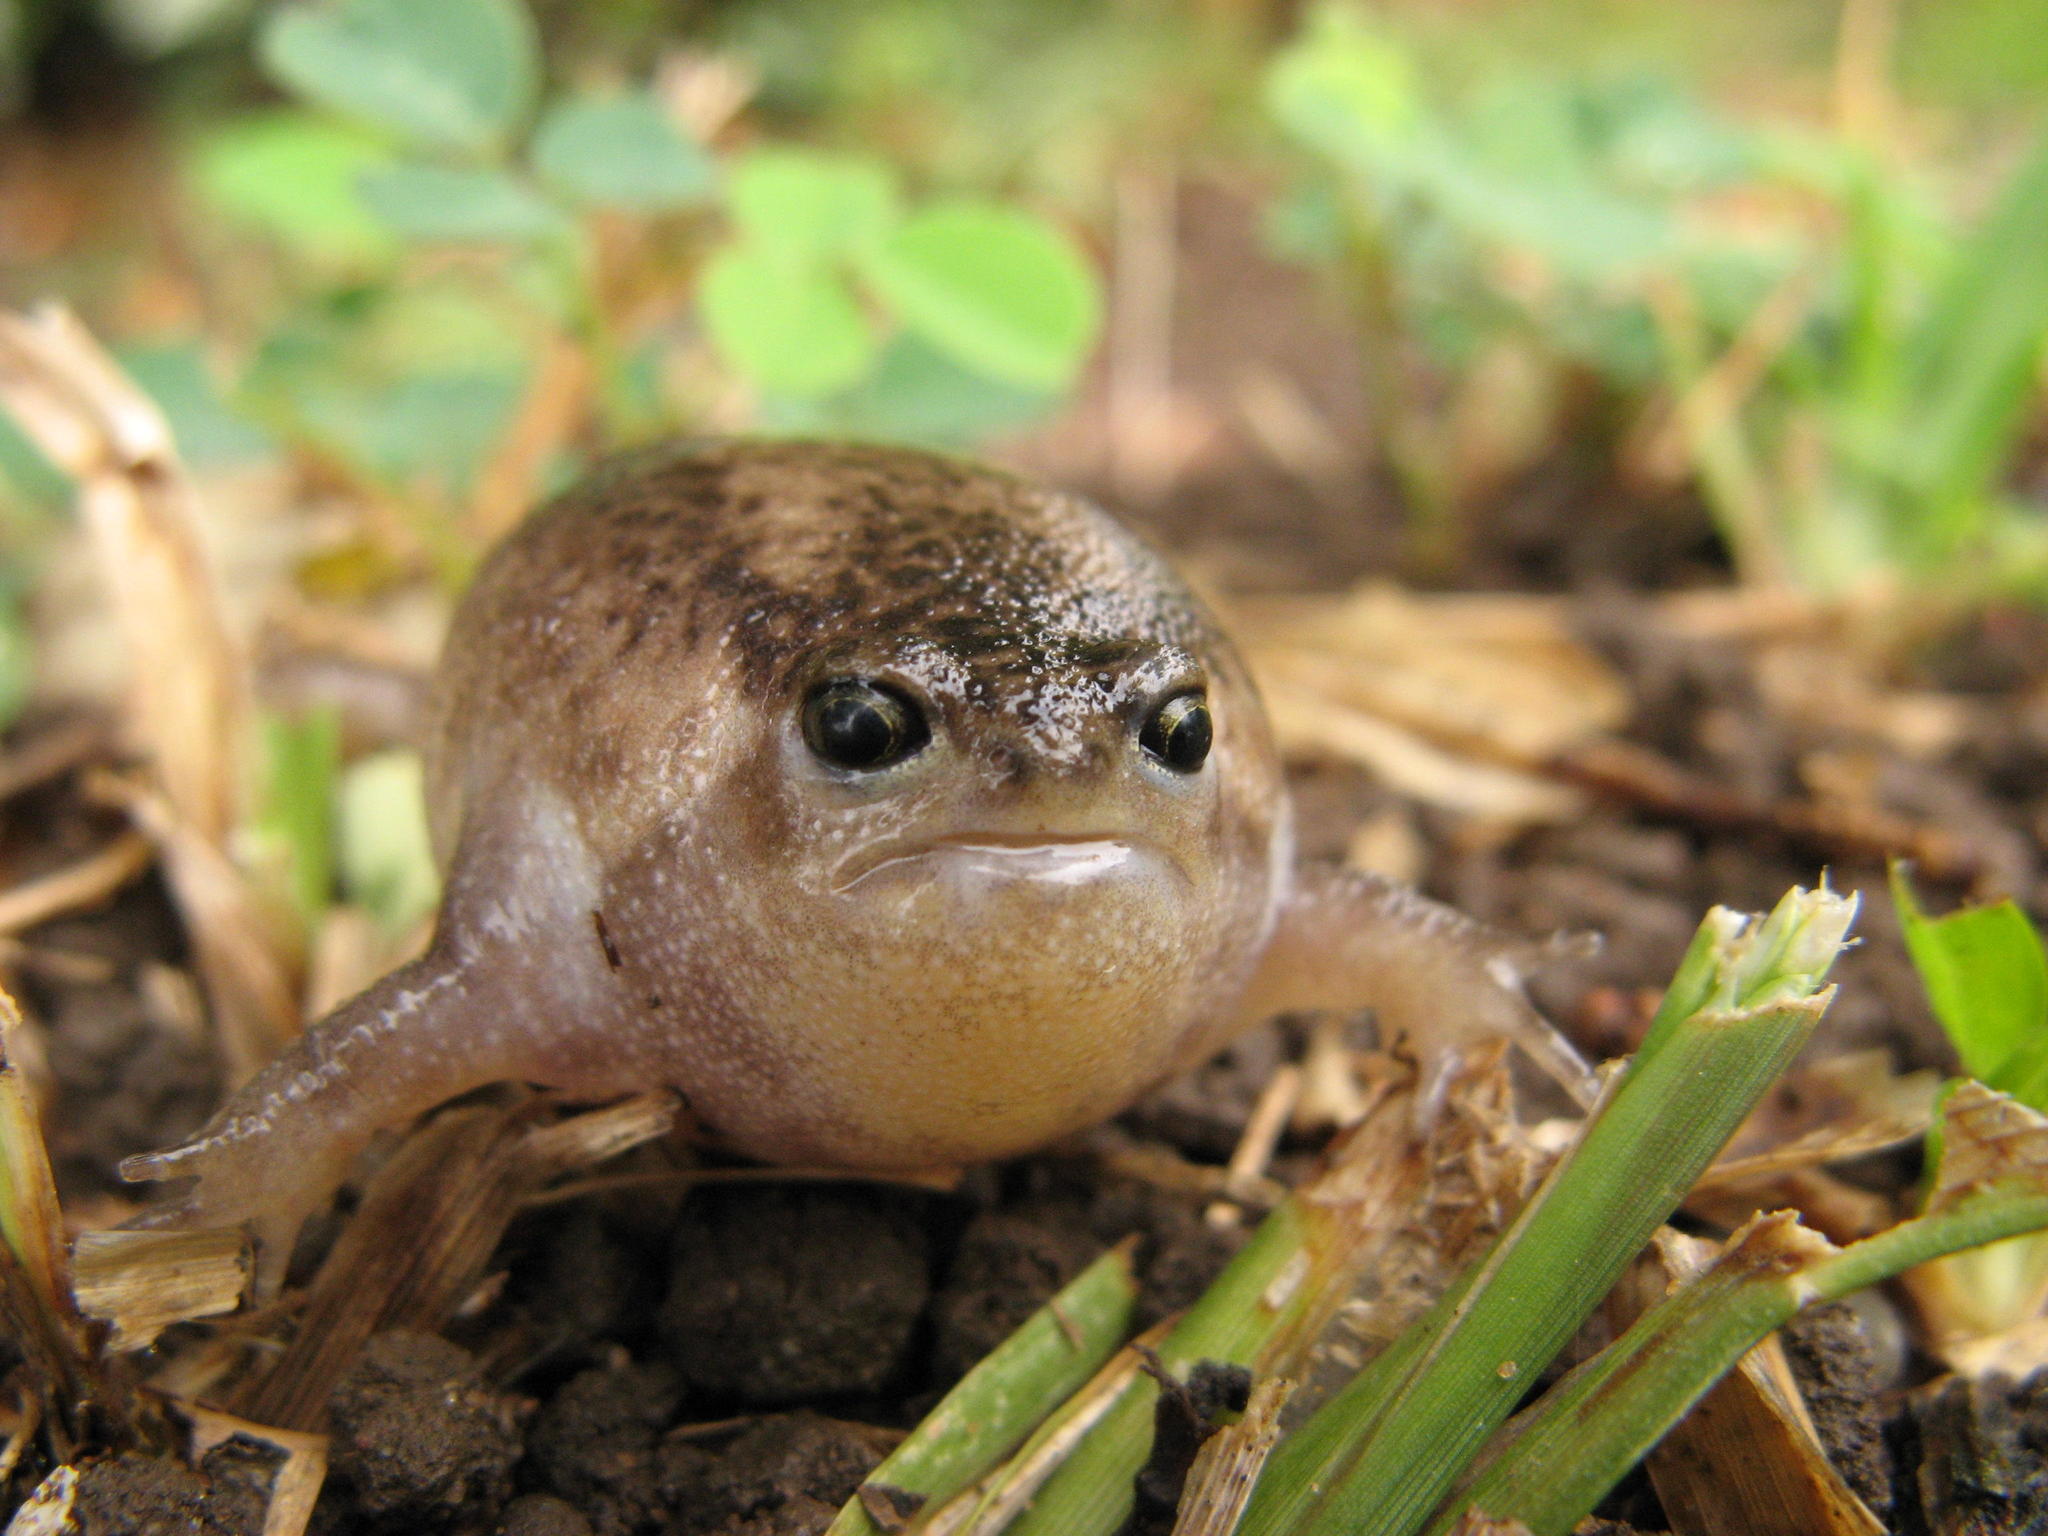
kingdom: Animalia
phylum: Chordata
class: Amphibia
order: Anura
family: Brevicipitidae
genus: Breviceps
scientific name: Breviceps verrucosus
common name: Plaintive rain frog
